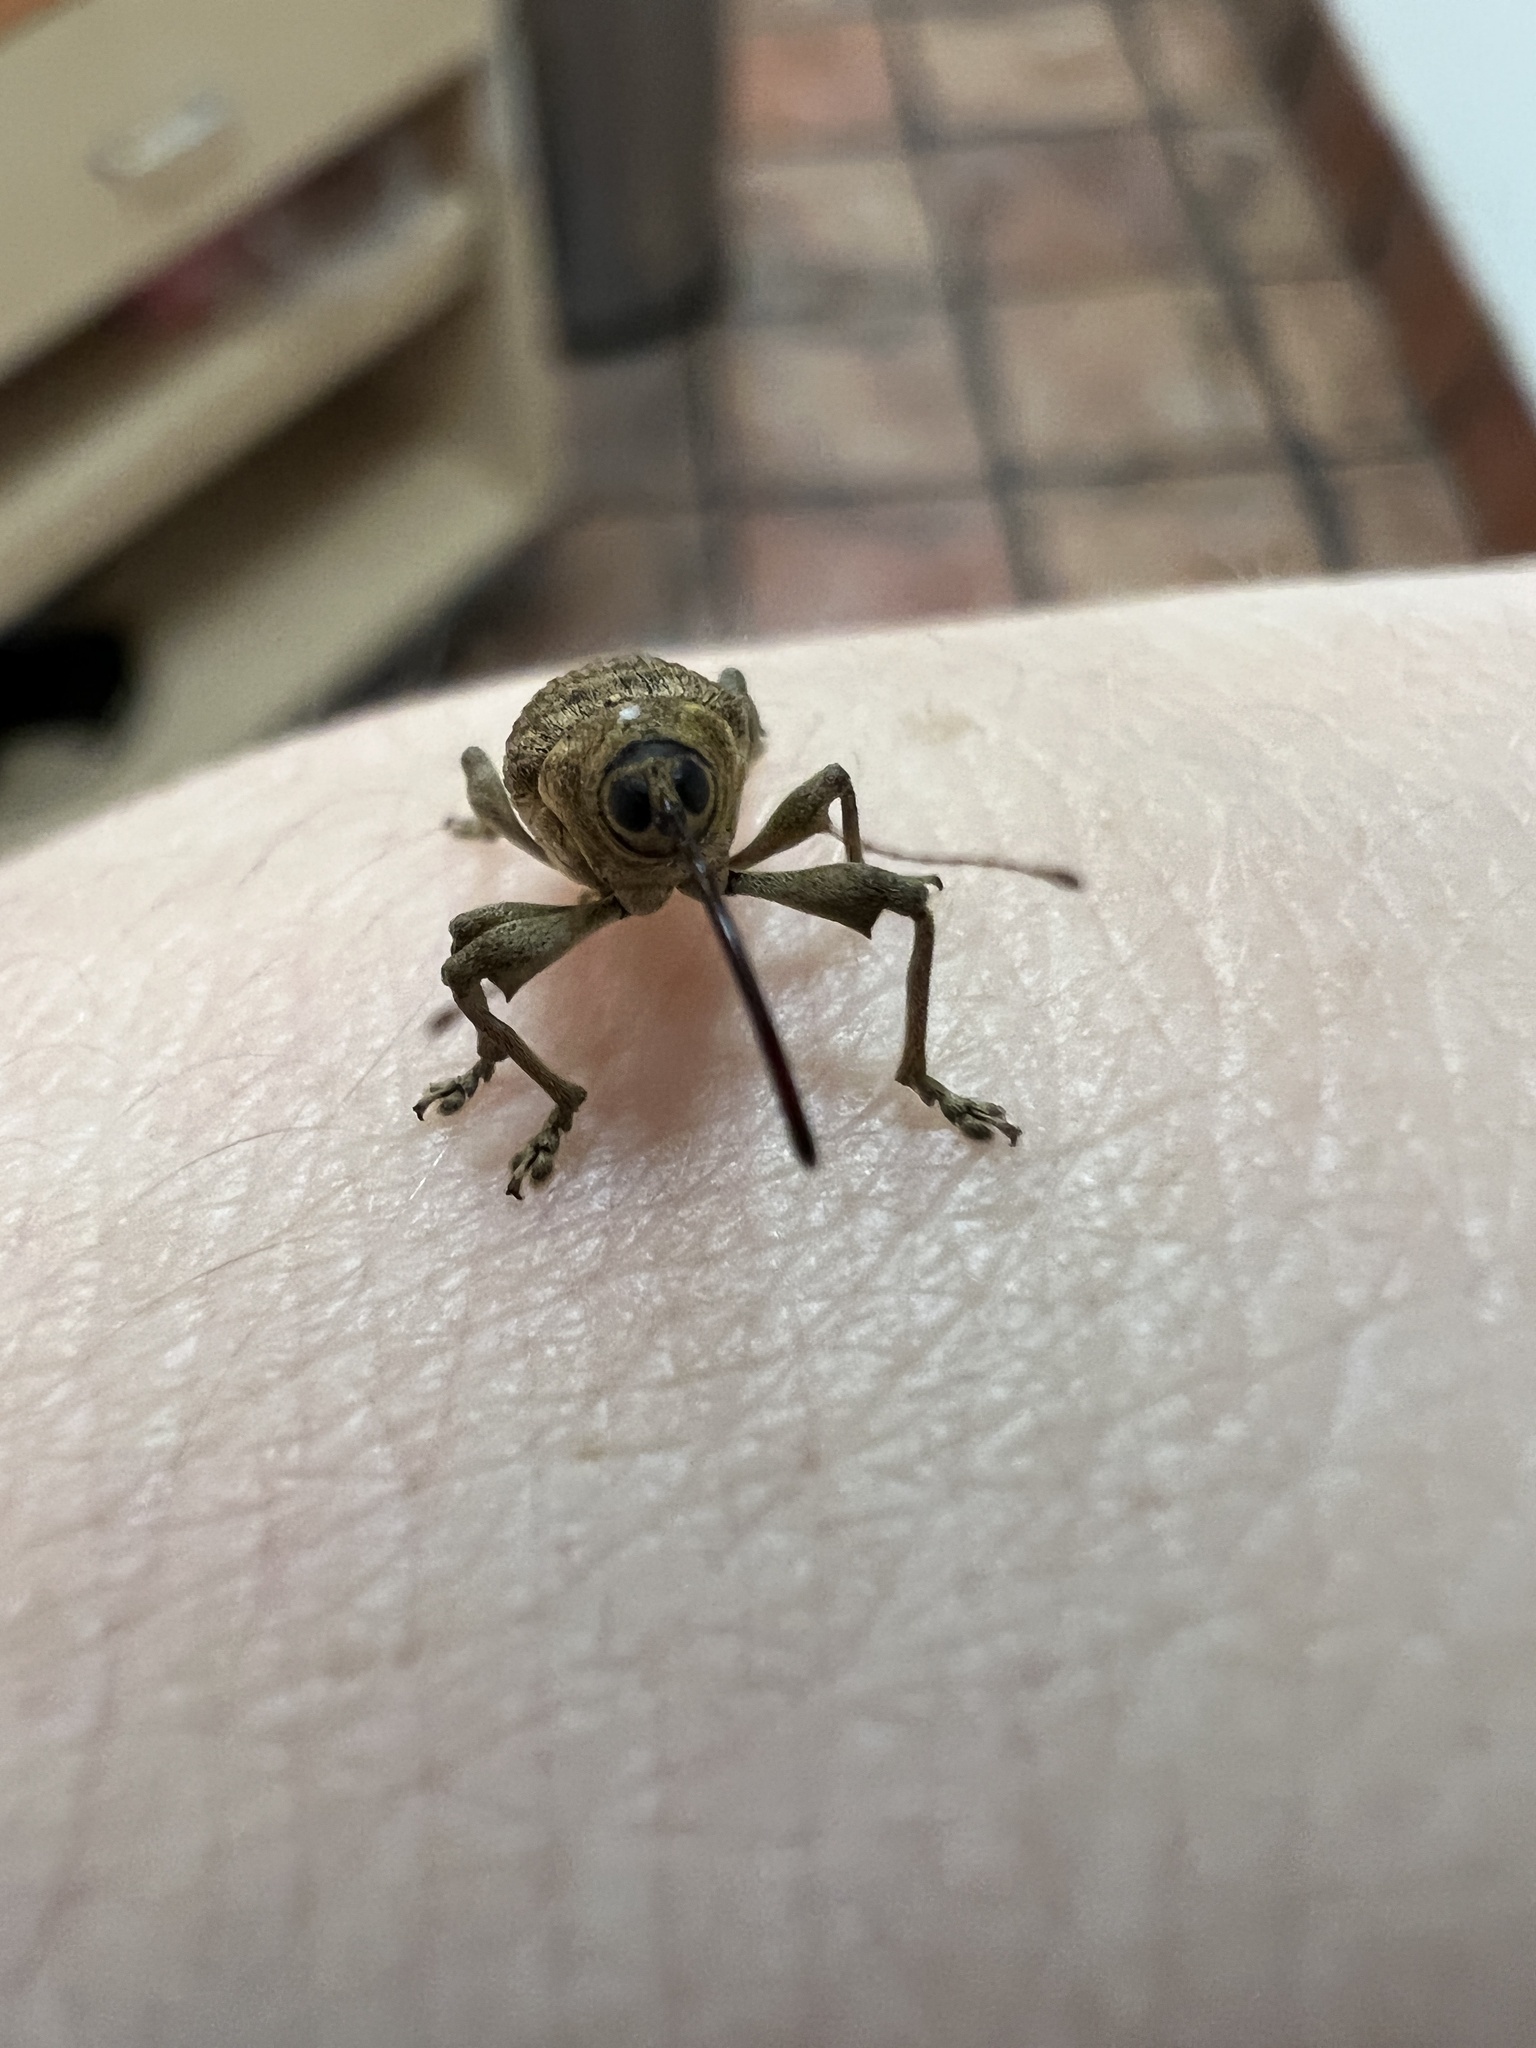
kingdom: Animalia
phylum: Arthropoda
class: Insecta
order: Coleoptera
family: Curculionidae
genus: Curculio
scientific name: Curculio
